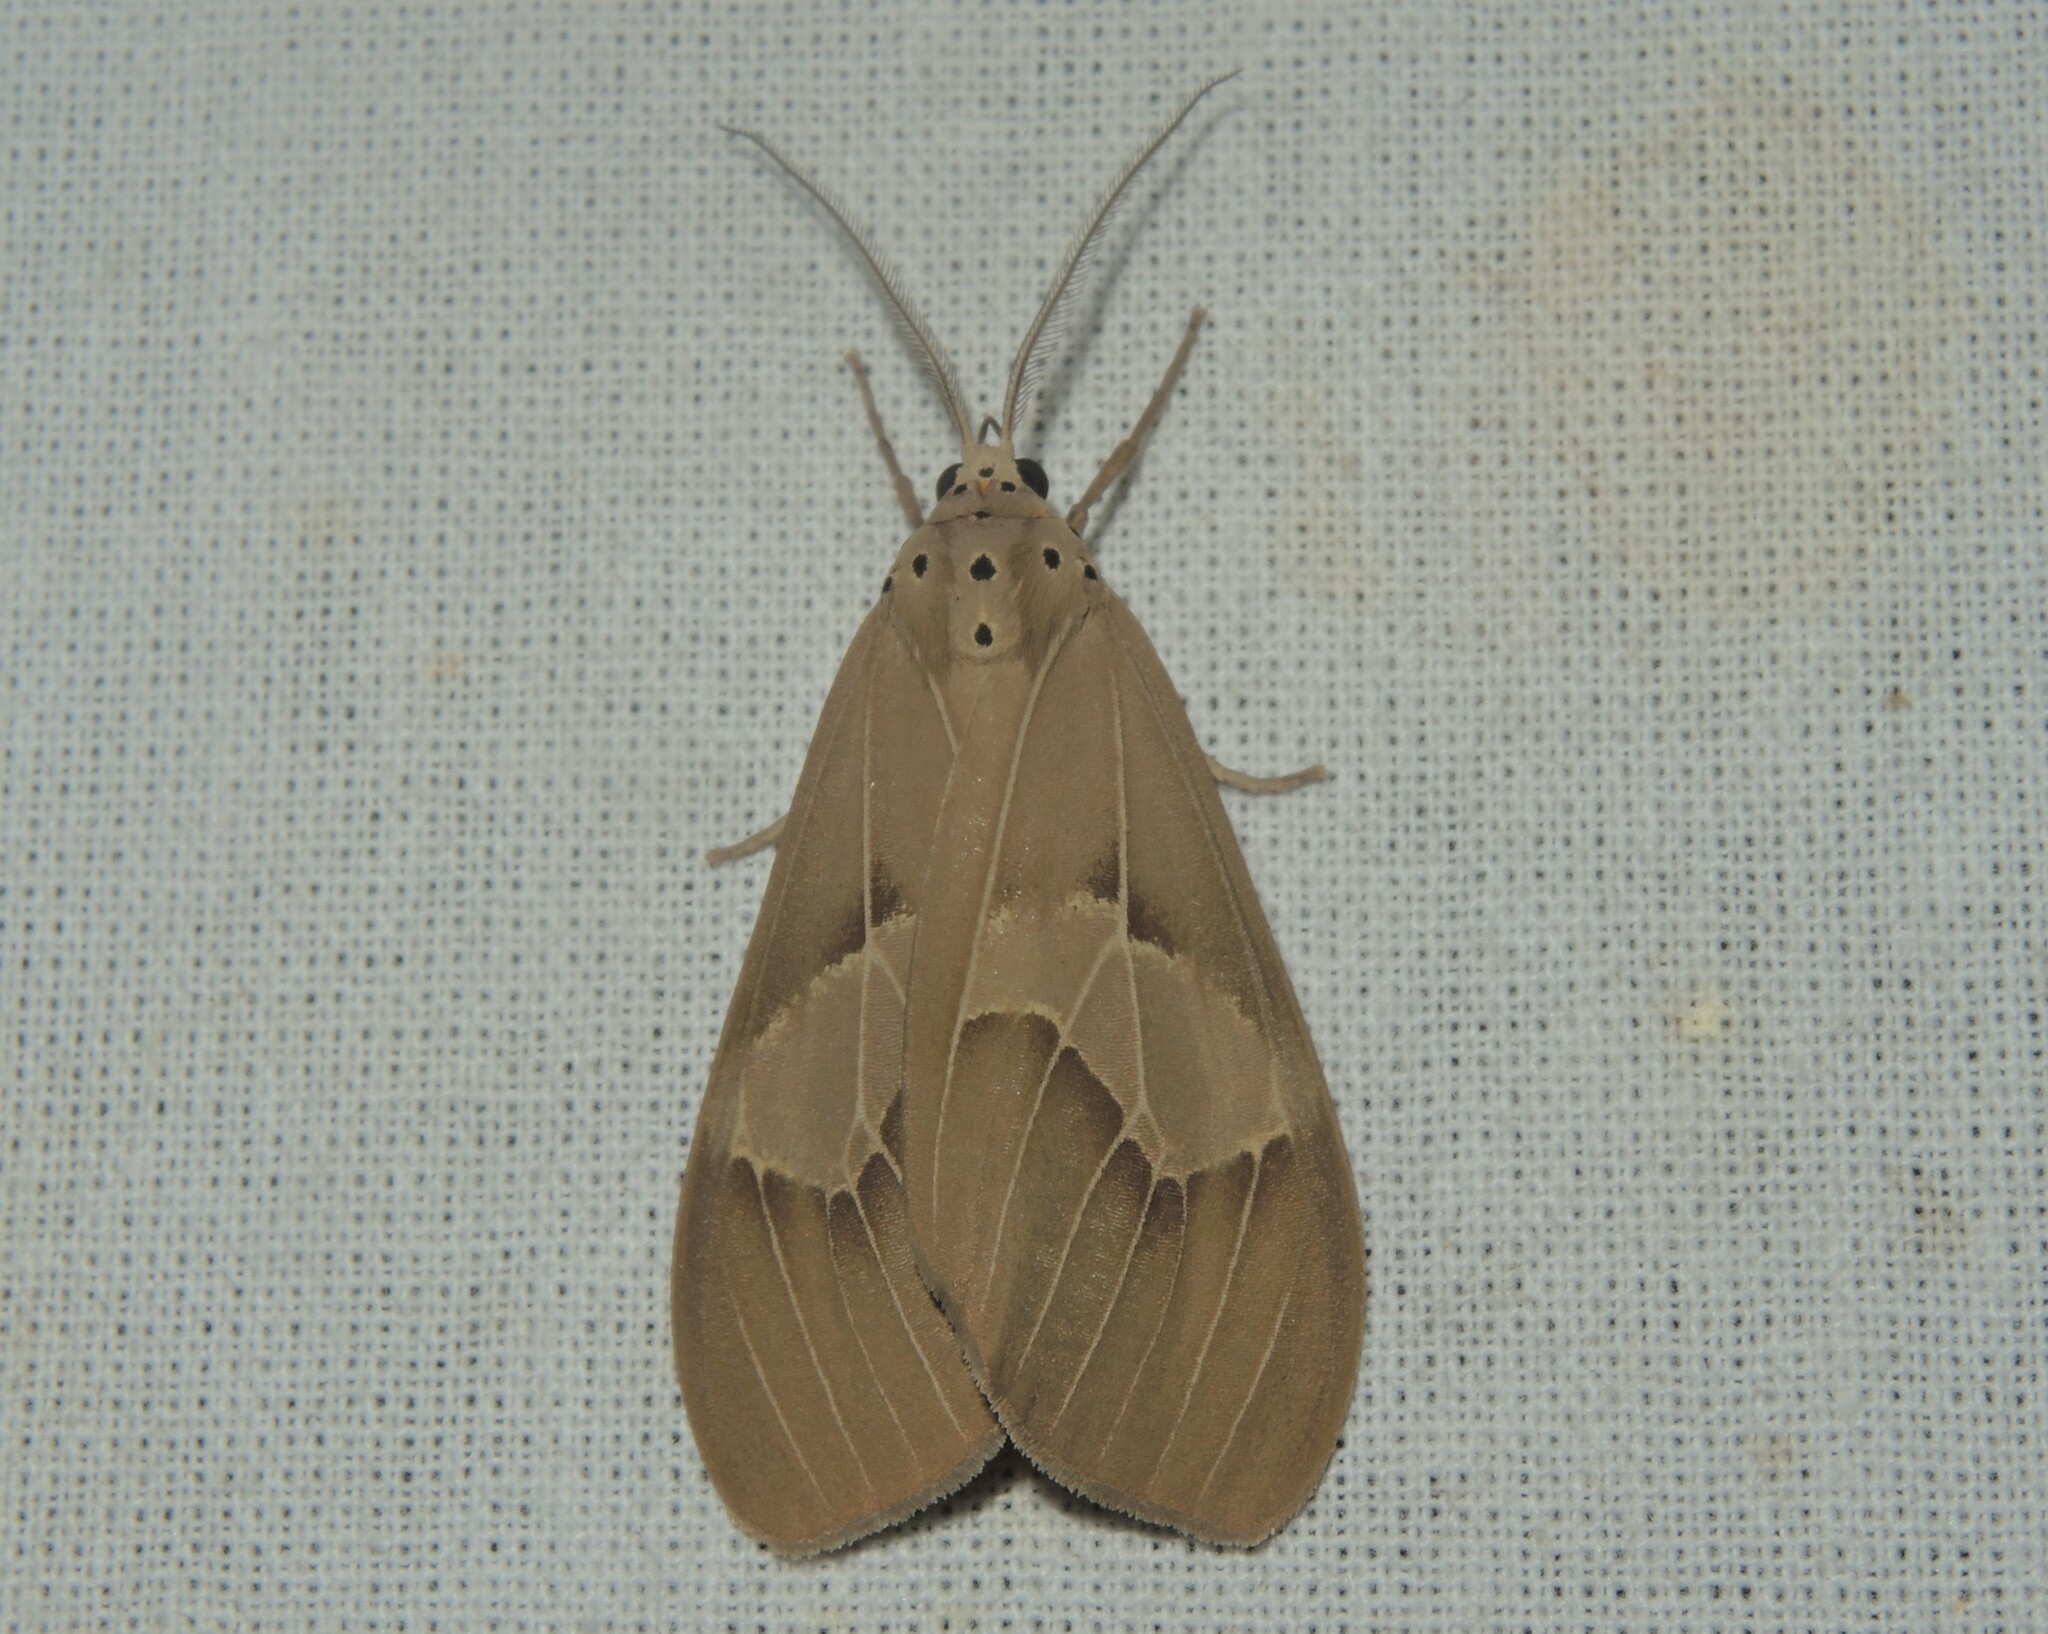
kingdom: Animalia
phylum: Arthropoda
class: Insecta
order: Lepidoptera
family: Erebidae
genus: Paraplastis
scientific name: Paraplastis hampsoni
